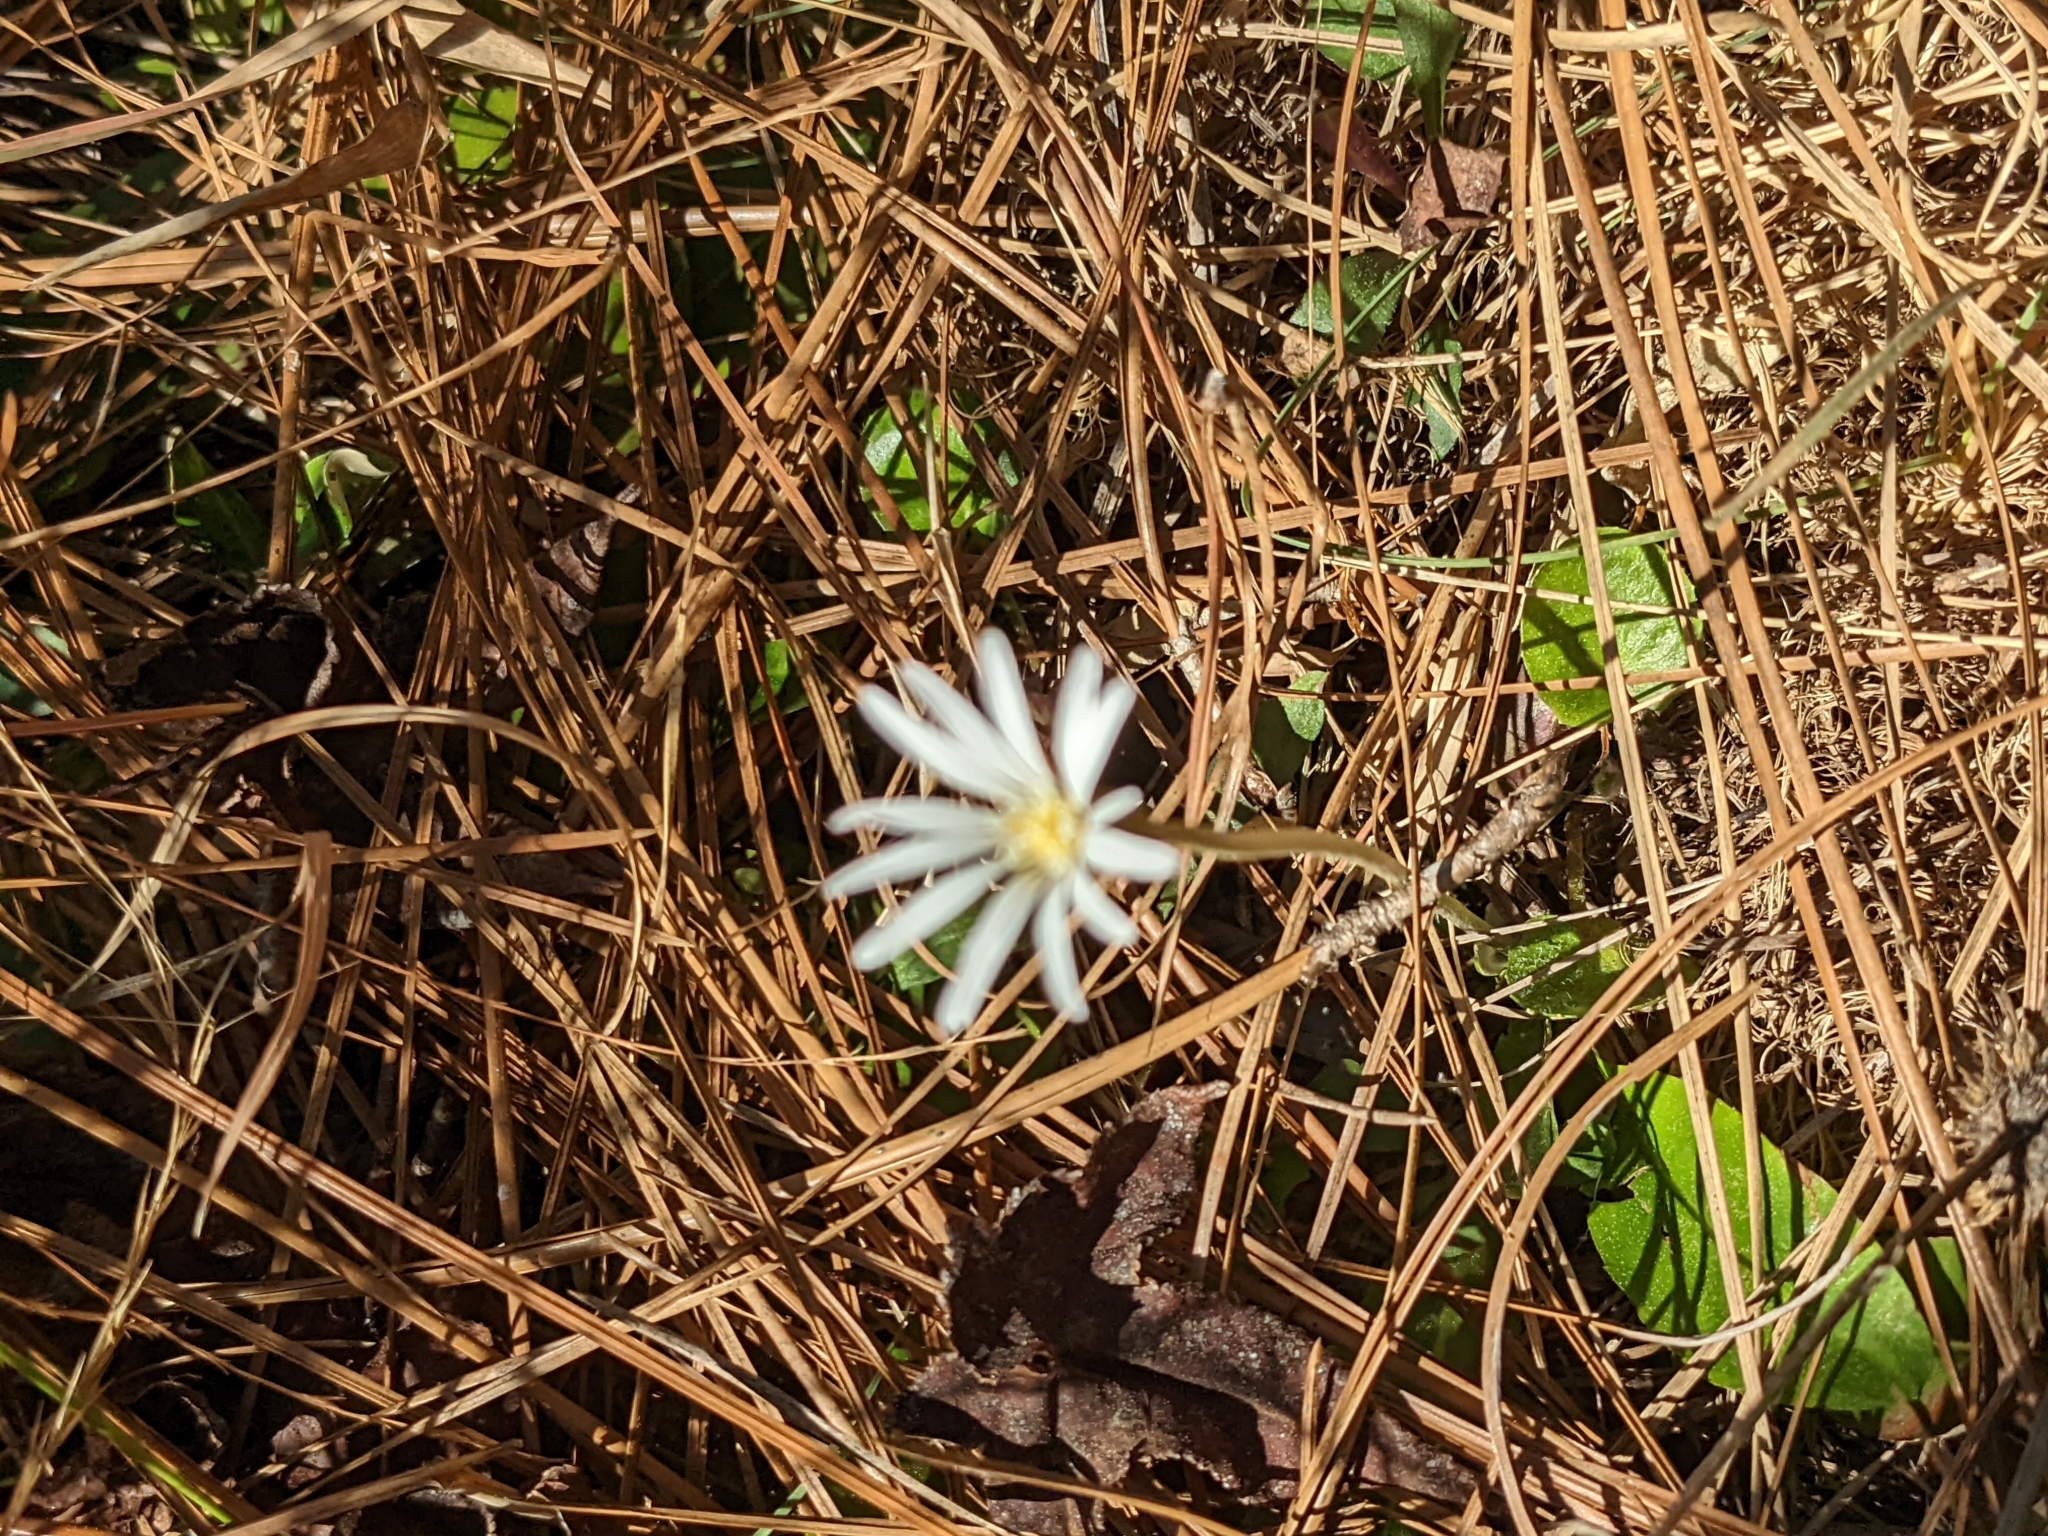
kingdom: Plantae
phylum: Tracheophyta
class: Magnoliopsida
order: Asterales
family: Asteraceae
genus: Chaptalia
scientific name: Chaptalia tomentosa
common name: Woolly sunbonnet
